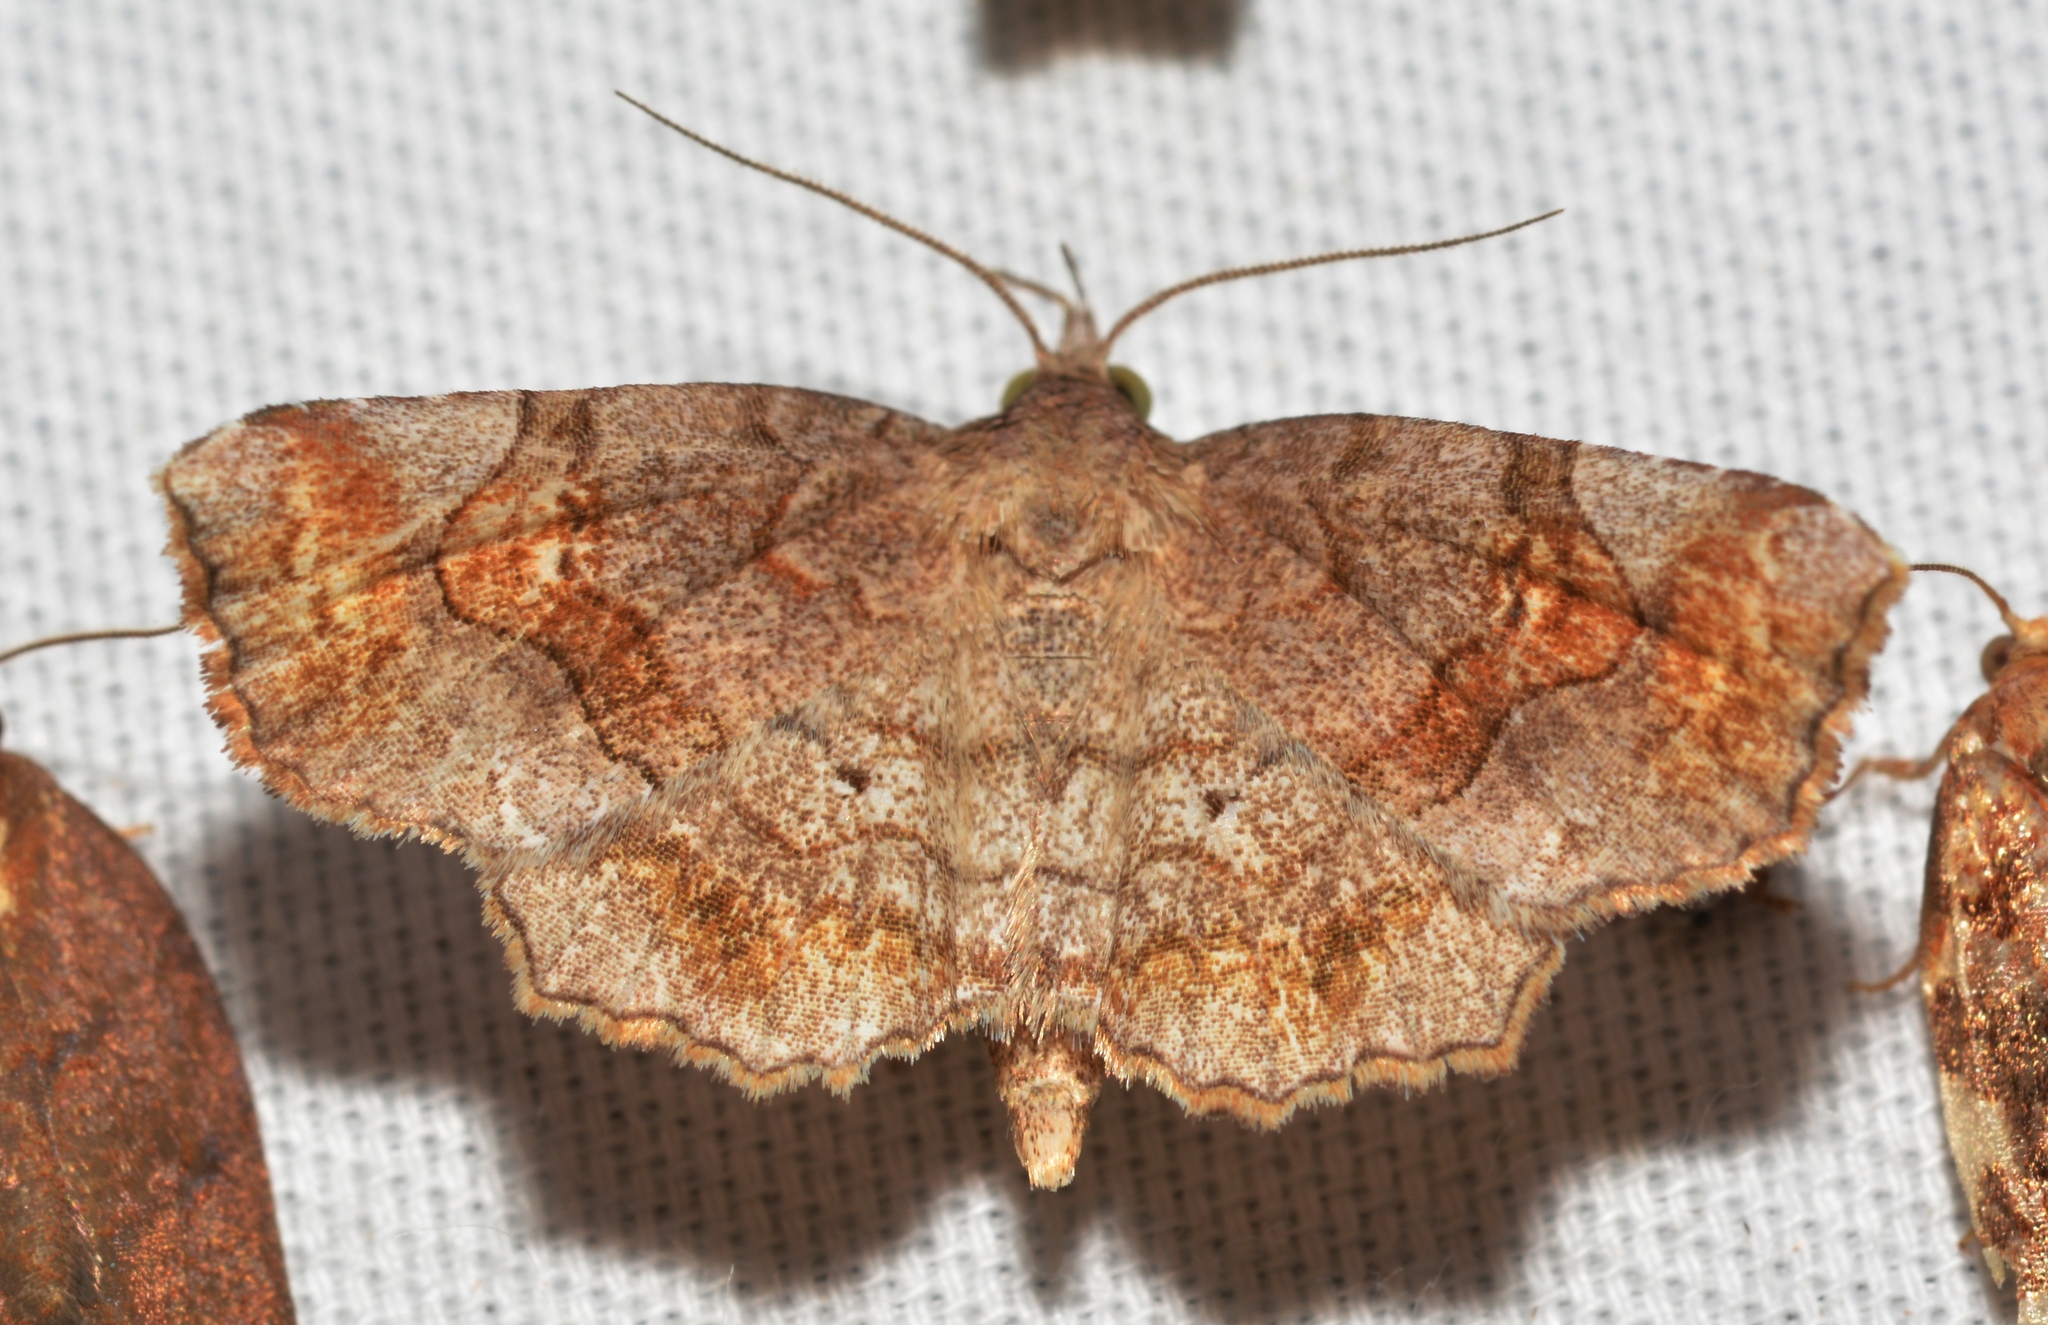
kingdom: Animalia
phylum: Arthropoda
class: Insecta
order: Lepidoptera
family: Erebidae
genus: Pangrapta
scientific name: Pangrapta decoralis
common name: Decorated owlet
